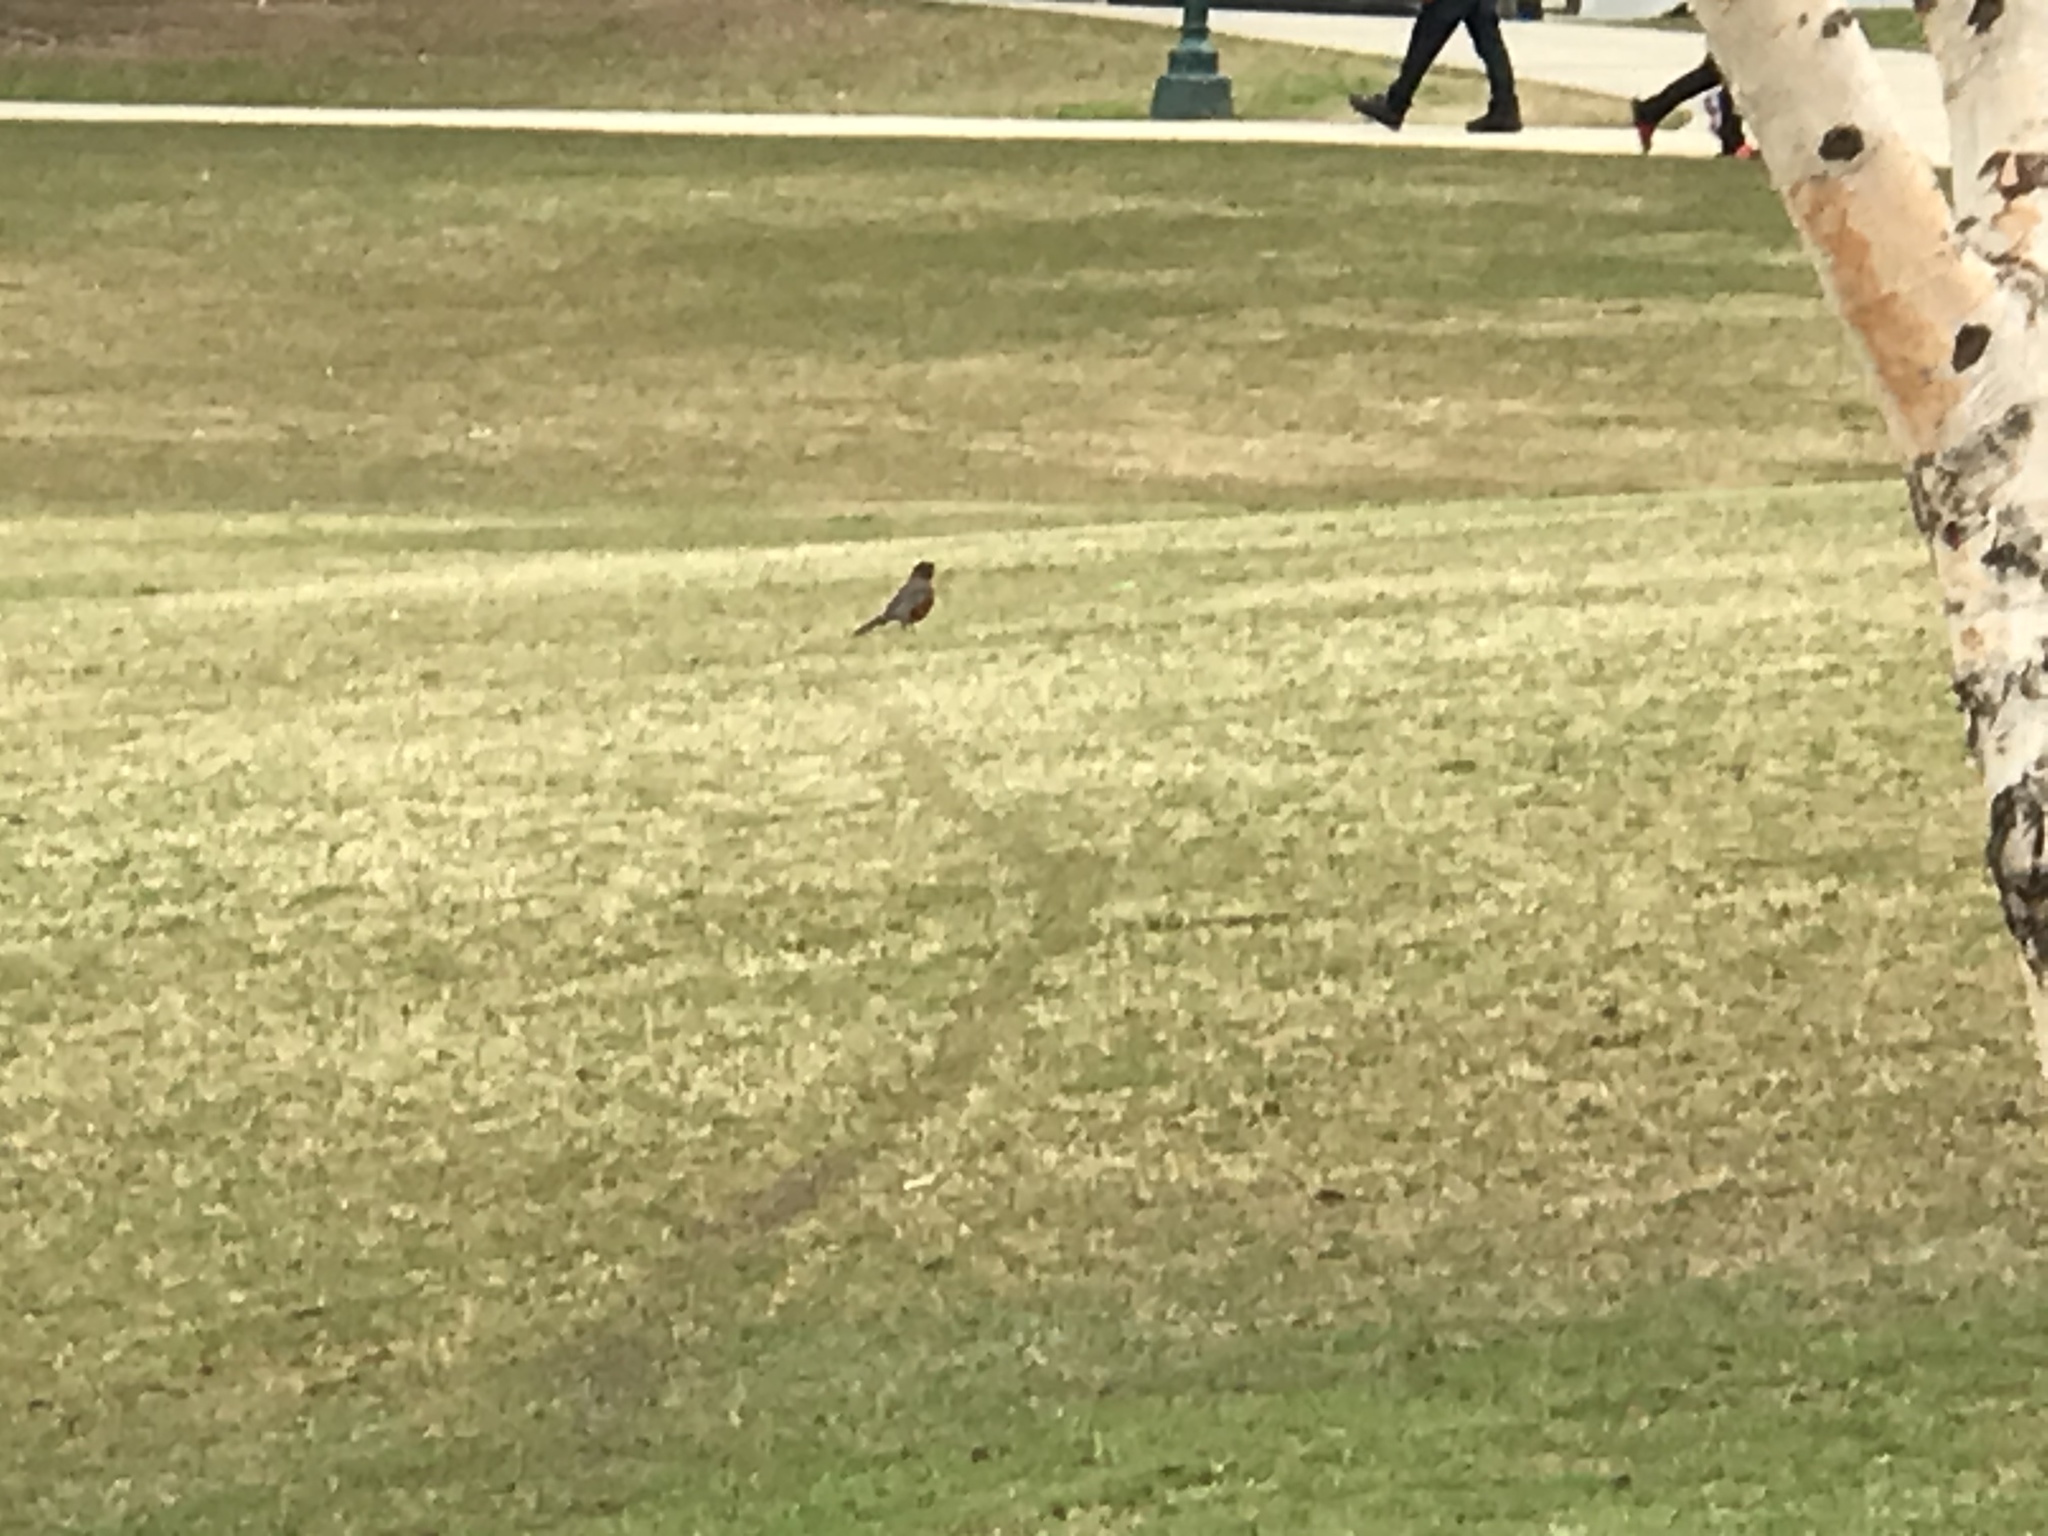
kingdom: Animalia
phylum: Chordata
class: Aves
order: Passeriformes
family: Turdidae
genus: Turdus
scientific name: Turdus migratorius
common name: American robin
